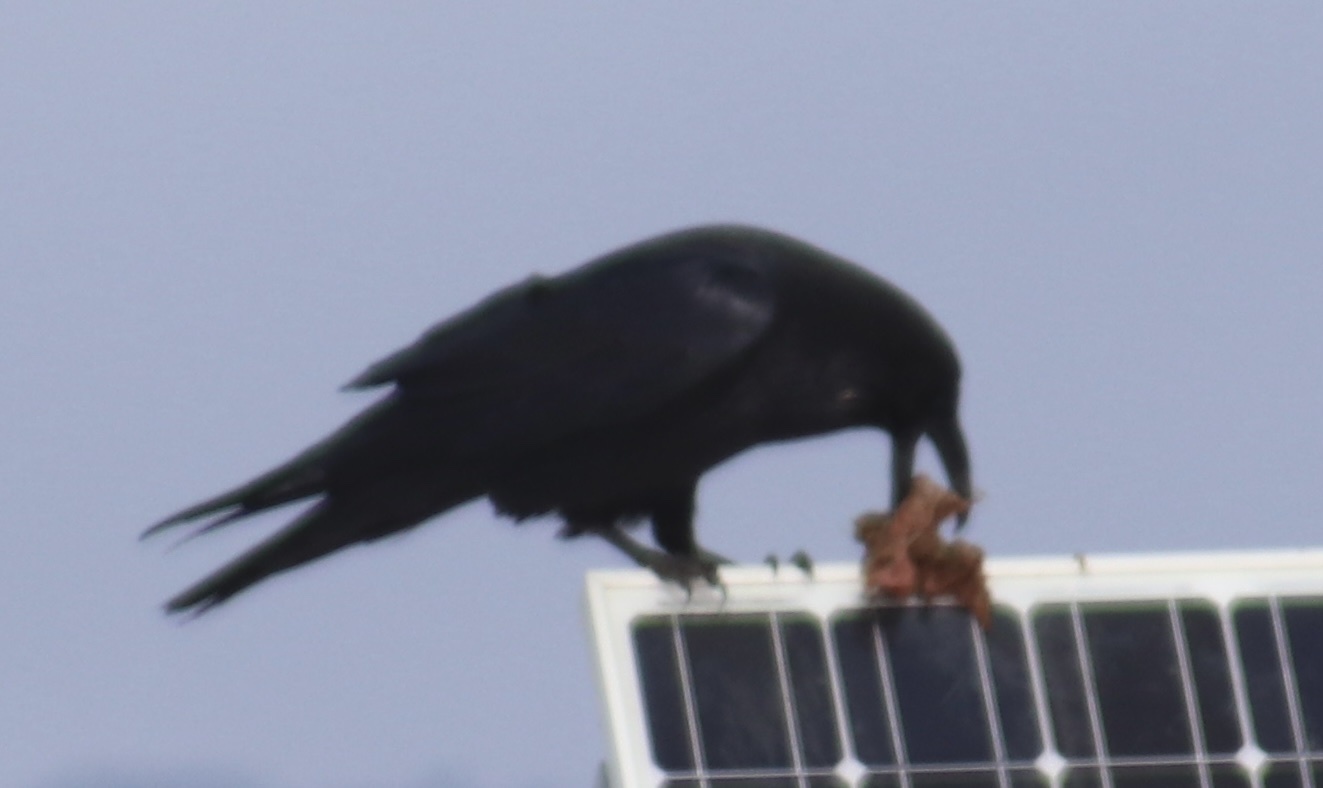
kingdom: Animalia
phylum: Chordata
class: Aves
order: Passeriformes
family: Corvidae
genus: Corvus
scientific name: Corvus corax
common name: Common raven
